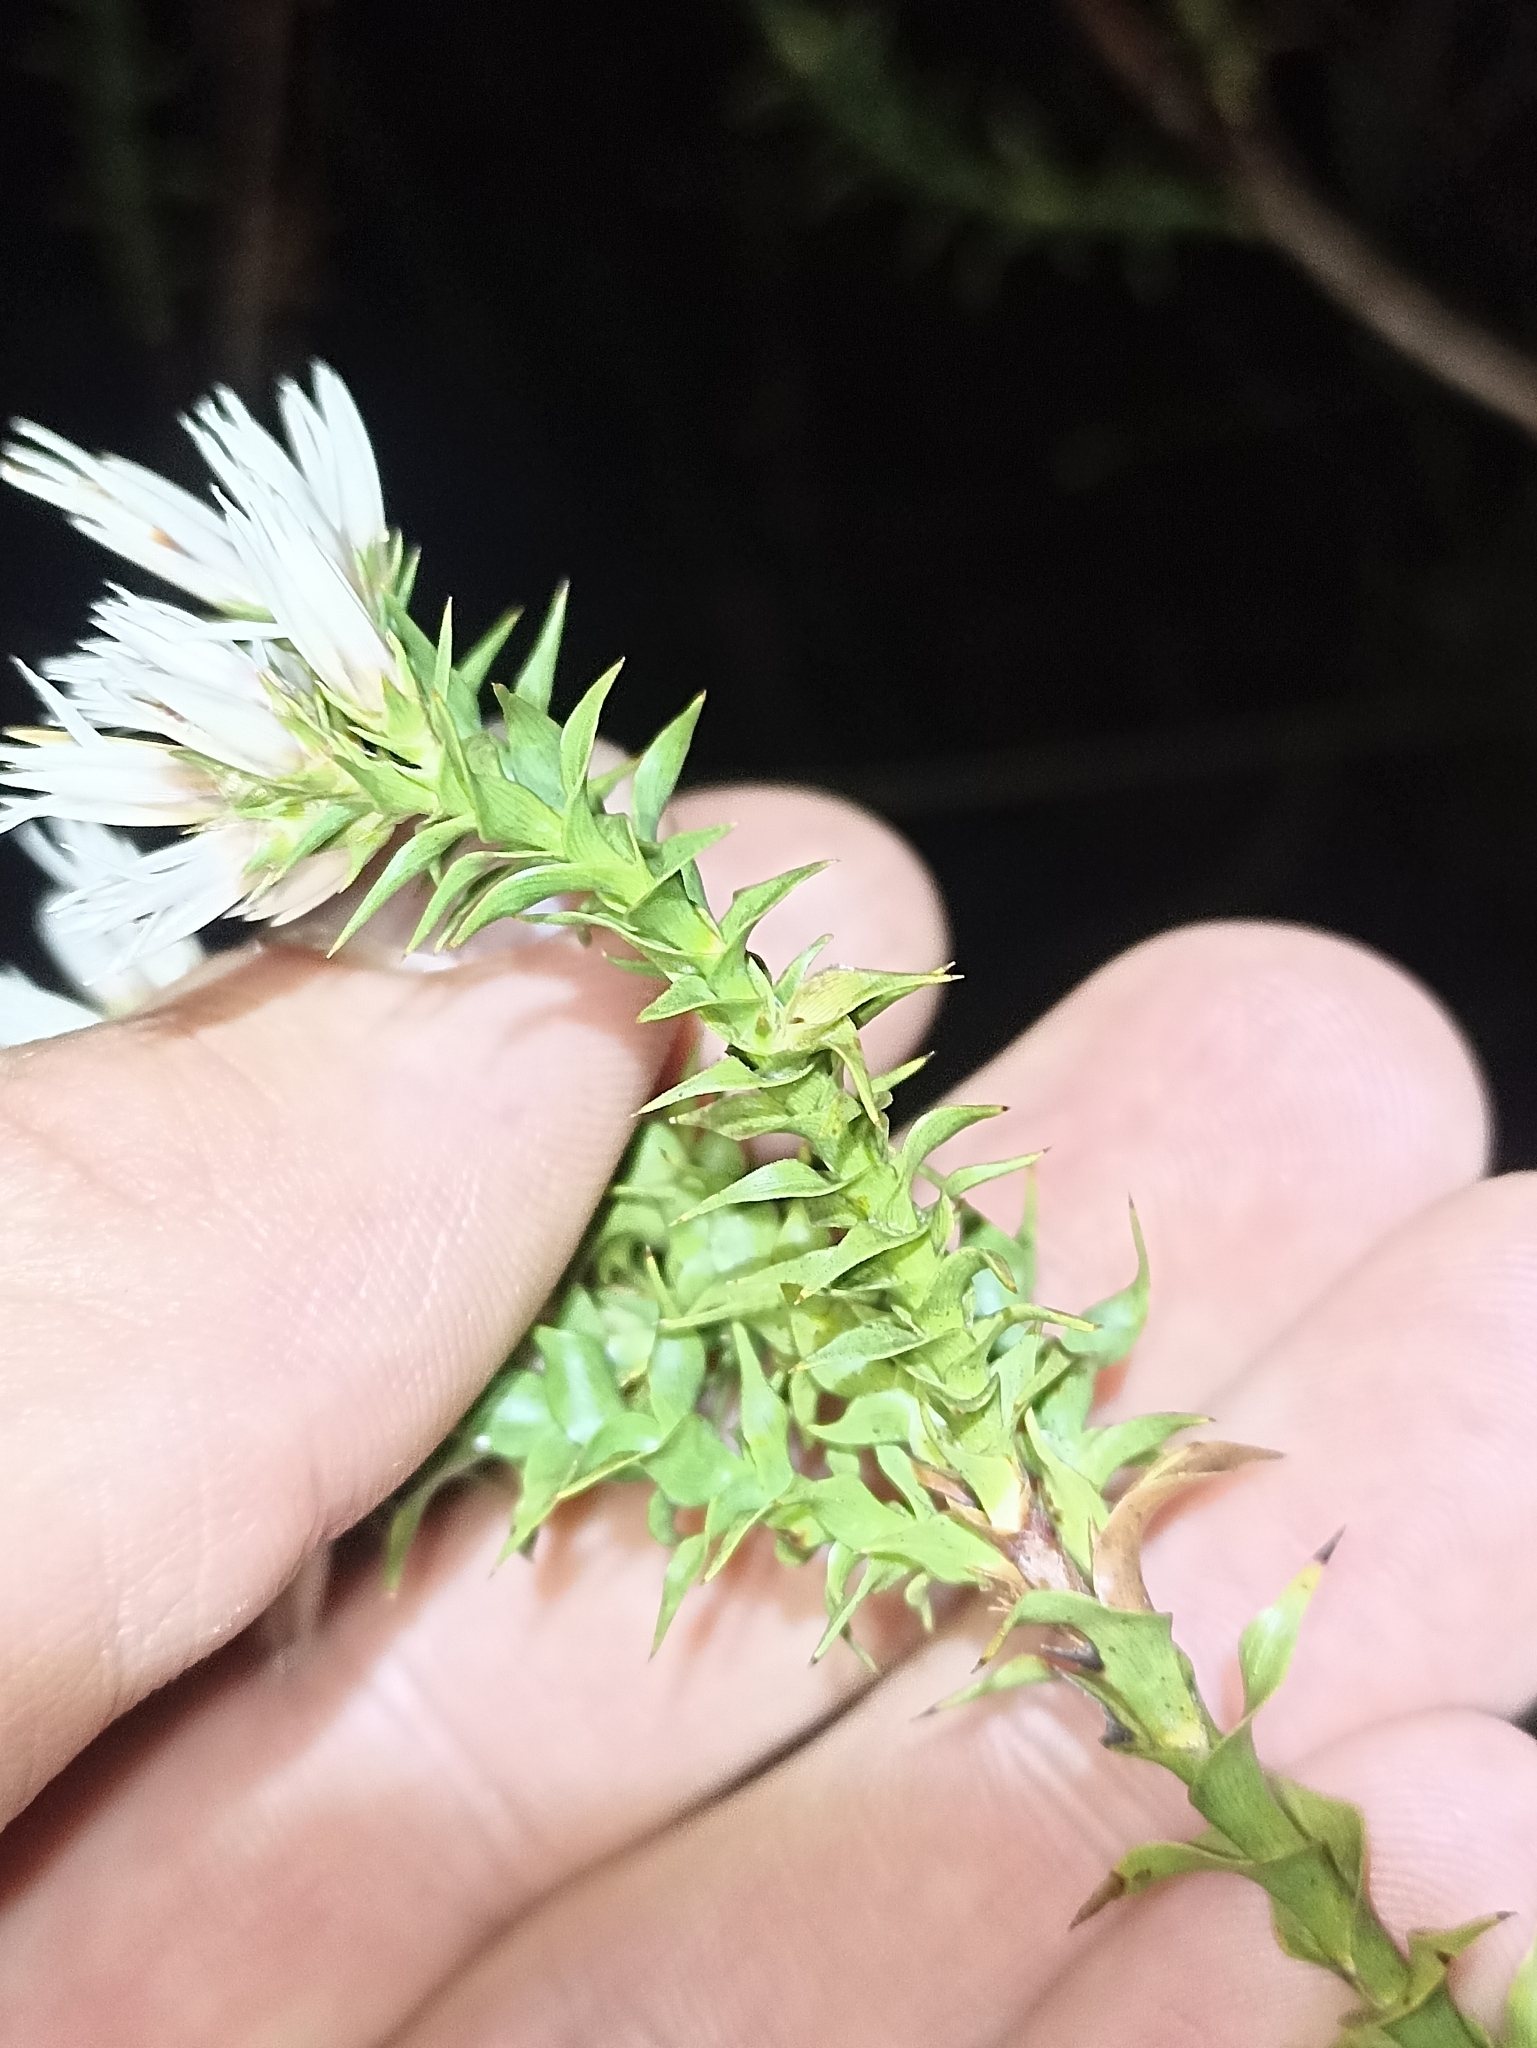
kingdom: Plantae
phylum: Tracheophyta
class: Magnoliopsida
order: Ericales
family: Ericaceae
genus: Sprengelia
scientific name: Sprengelia incarnata
